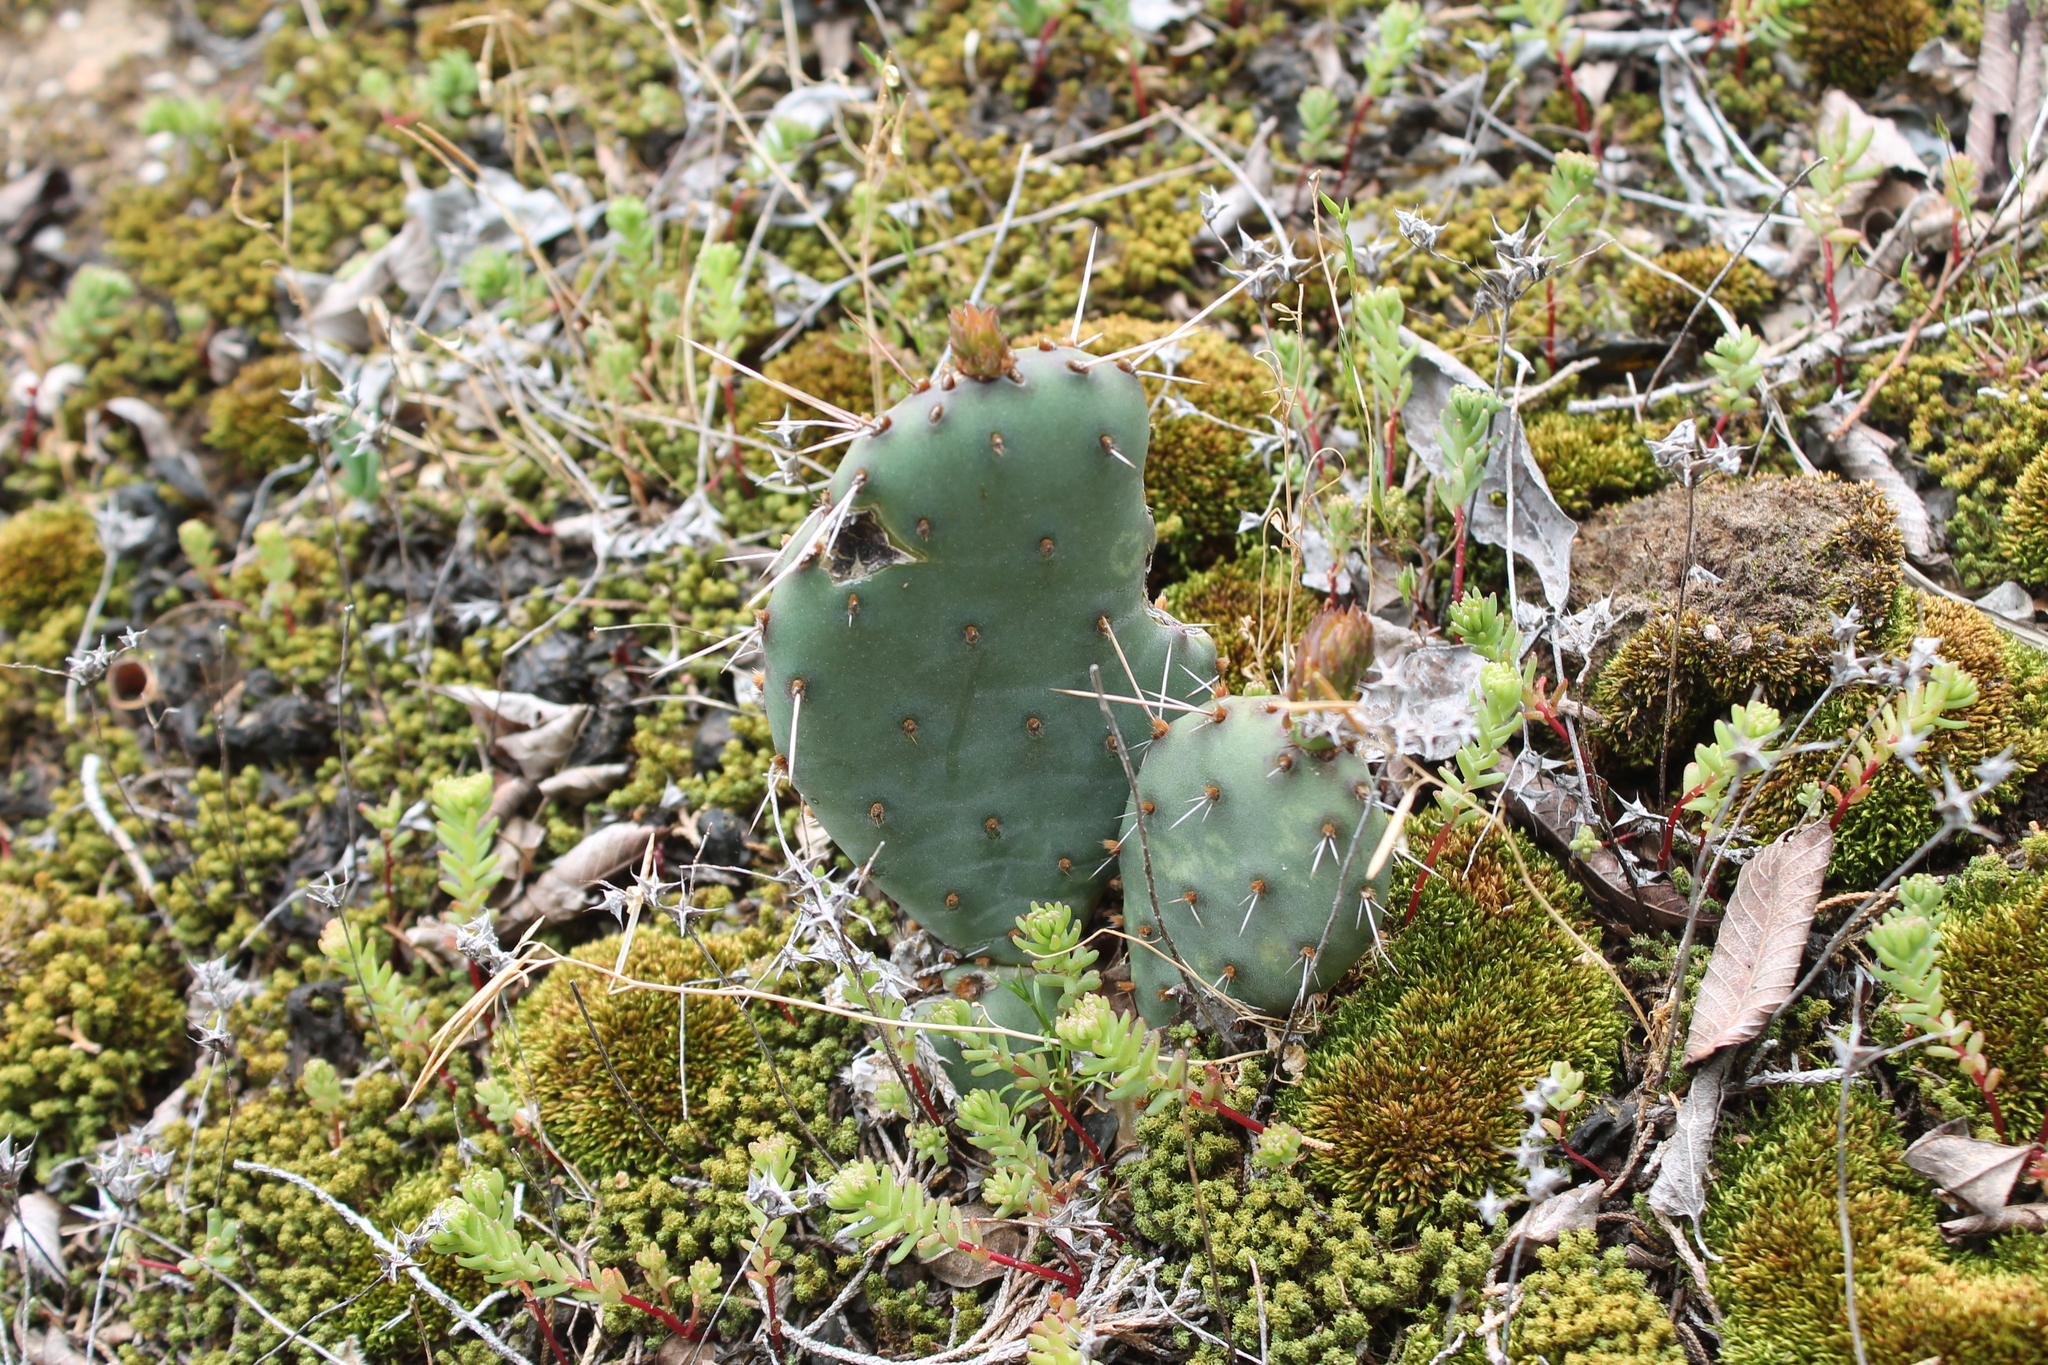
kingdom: Plantae
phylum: Tracheophyta
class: Magnoliopsida
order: Caryophyllales
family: Cactaceae
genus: Opuntia
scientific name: Opuntia humifusa
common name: Eastern prickly-pear
